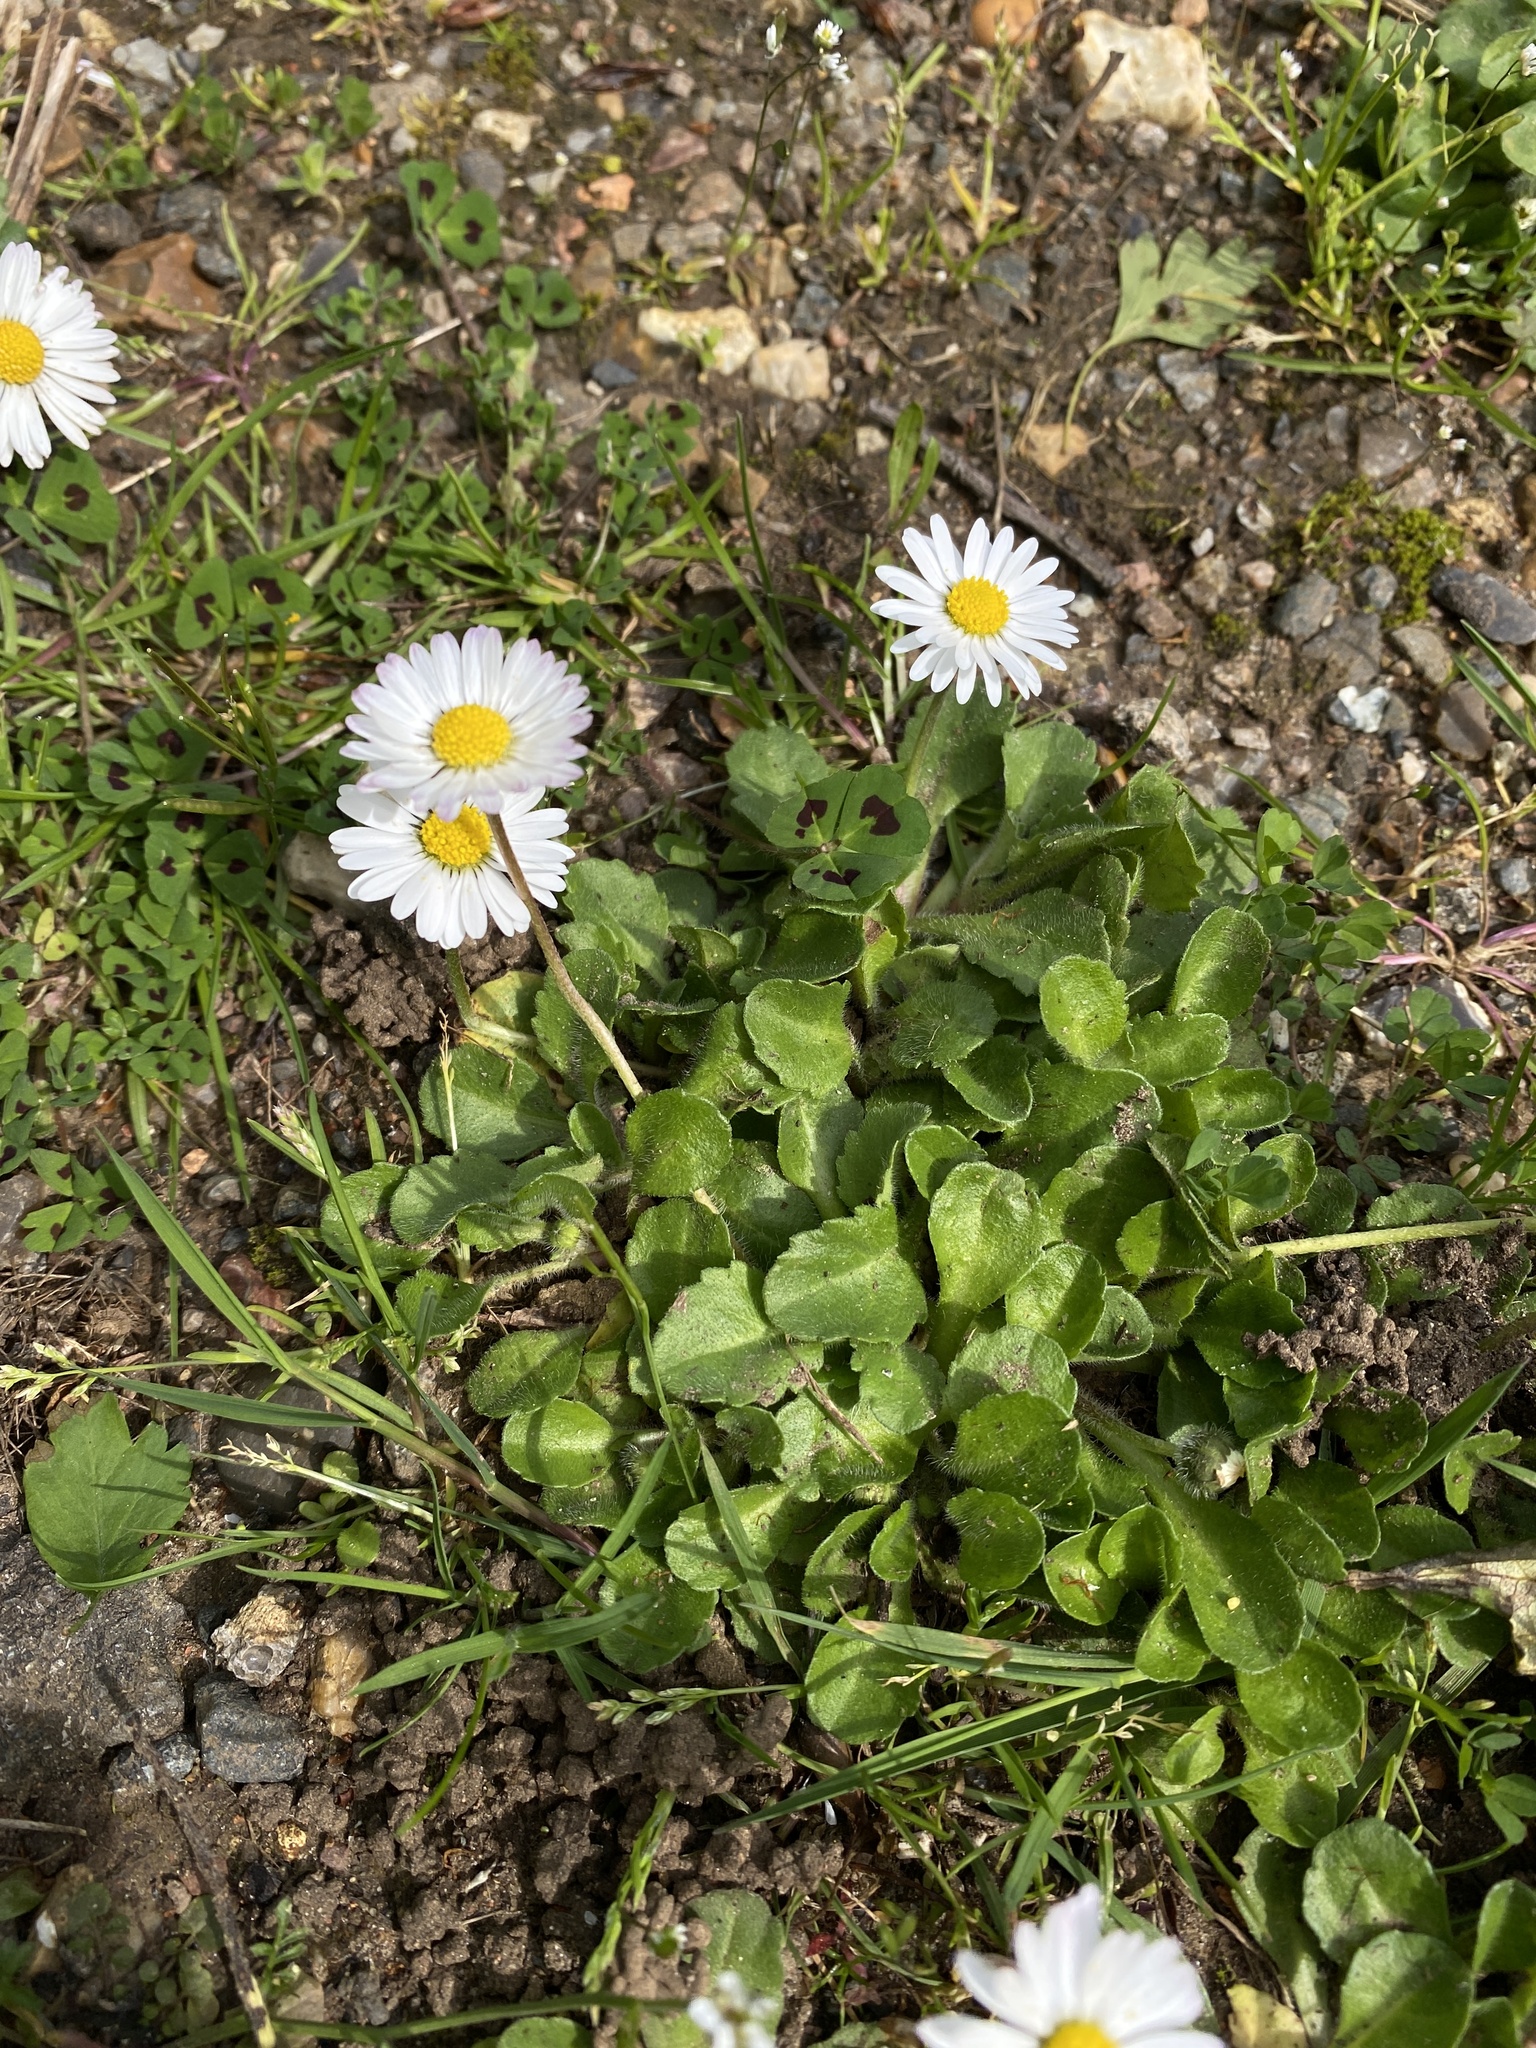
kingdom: Plantae
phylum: Tracheophyta
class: Magnoliopsida
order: Asterales
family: Asteraceae
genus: Bellis
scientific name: Bellis perennis
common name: Lawndaisy
